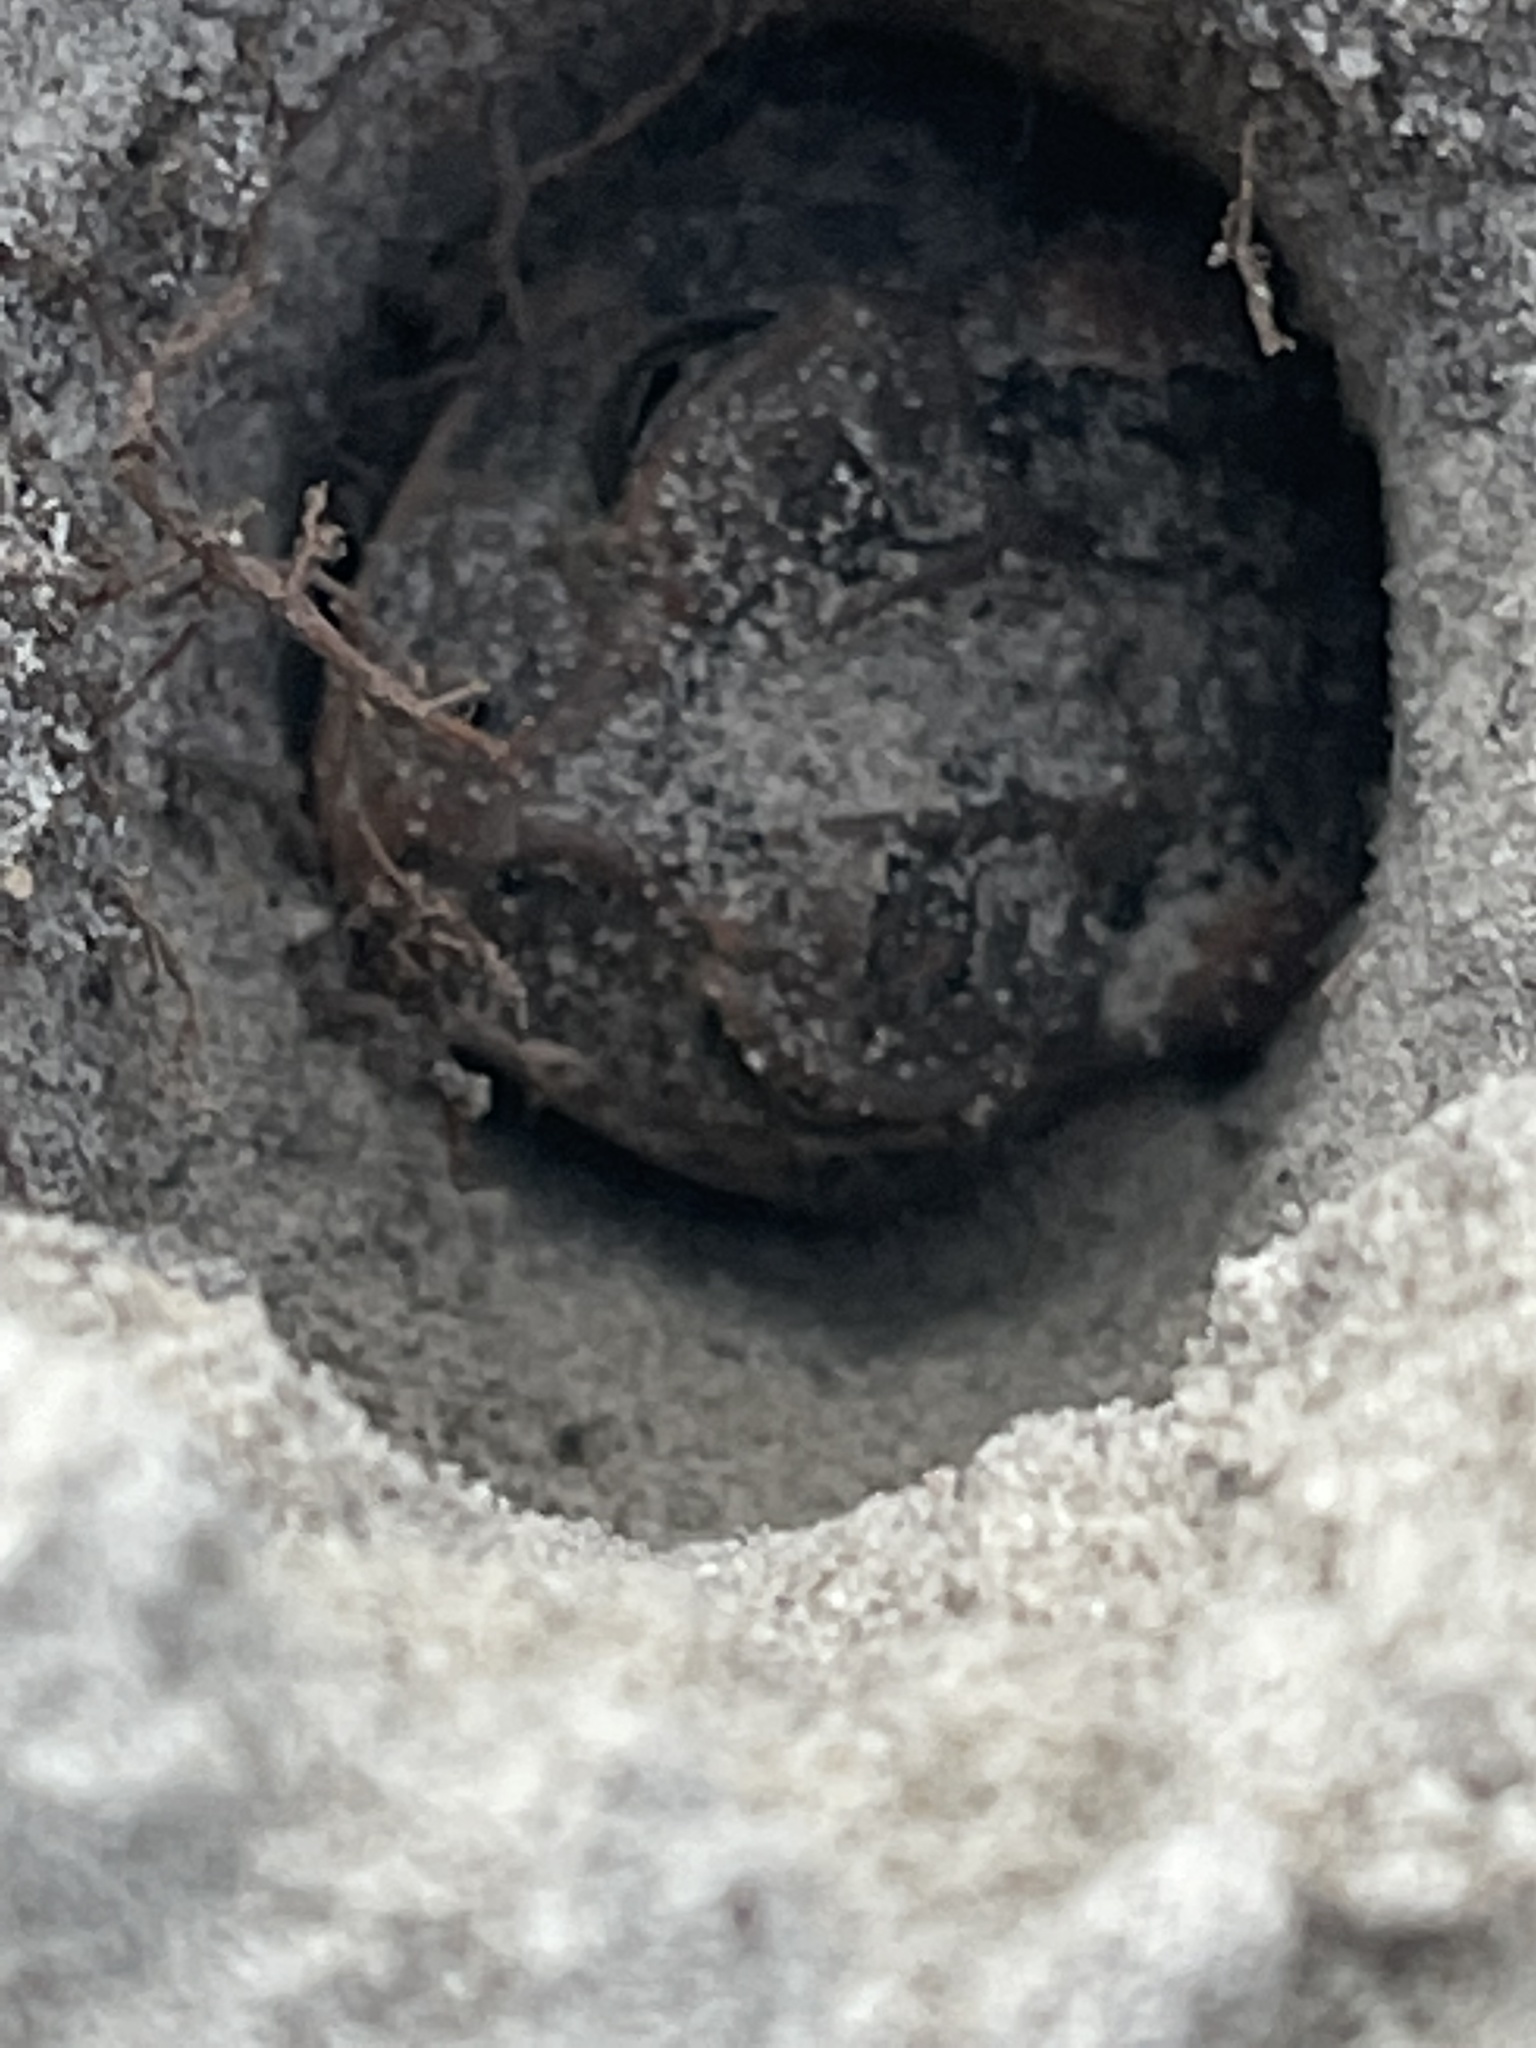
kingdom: Animalia
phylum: Chordata
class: Amphibia
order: Anura
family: Bufonidae
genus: Anaxyrus
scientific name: Anaxyrus terrestris
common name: Southern toad
